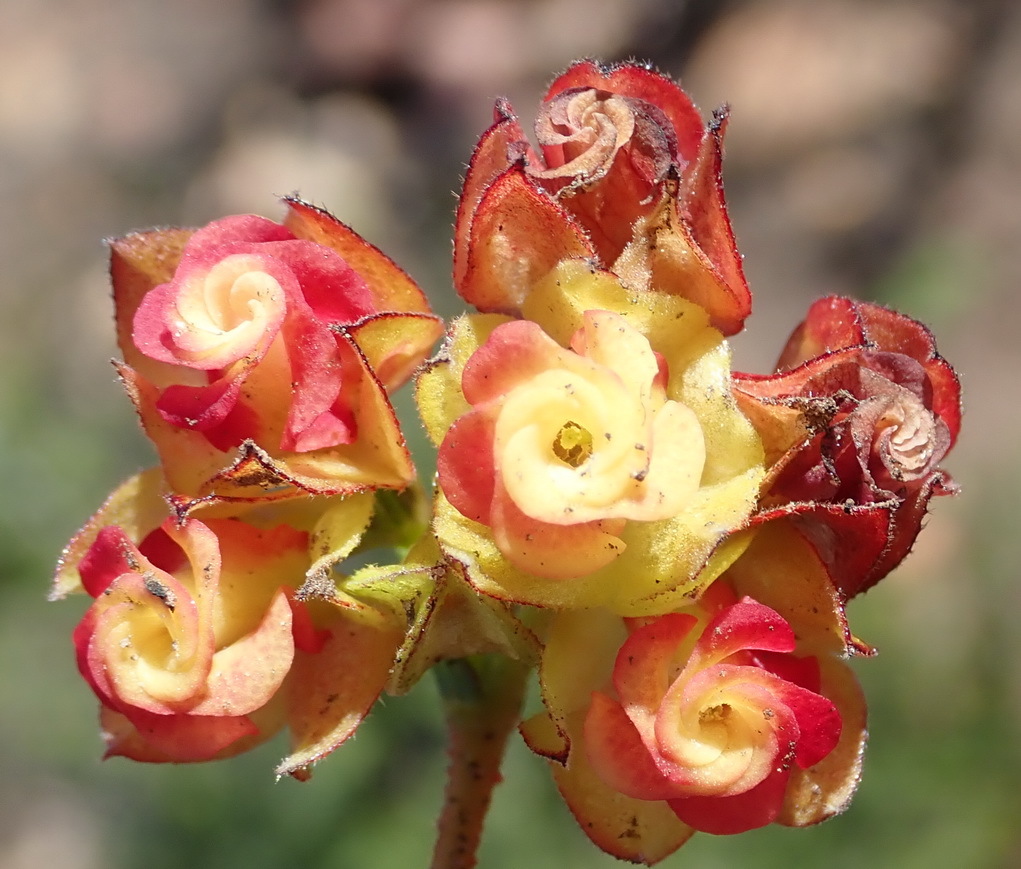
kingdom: Plantae
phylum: Tracheophyta
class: Magnoliopsida
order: Malvales
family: Malvaceae
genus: Hermannia
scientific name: Hermannia angularis
